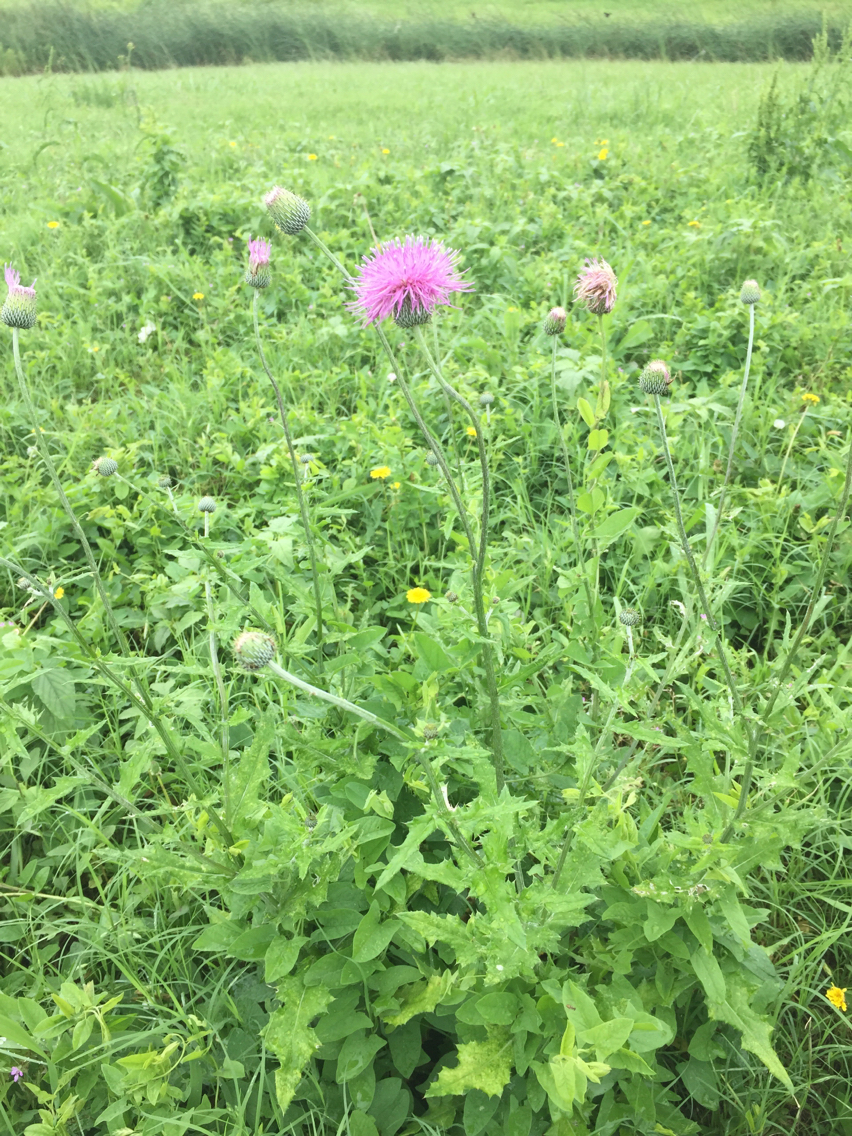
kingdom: Plantae
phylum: Tracheophyta
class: Magnoliopsida
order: Asterales
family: Asteraceae
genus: Cirsium
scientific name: Cirsium texanum
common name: Texas purple thistle
